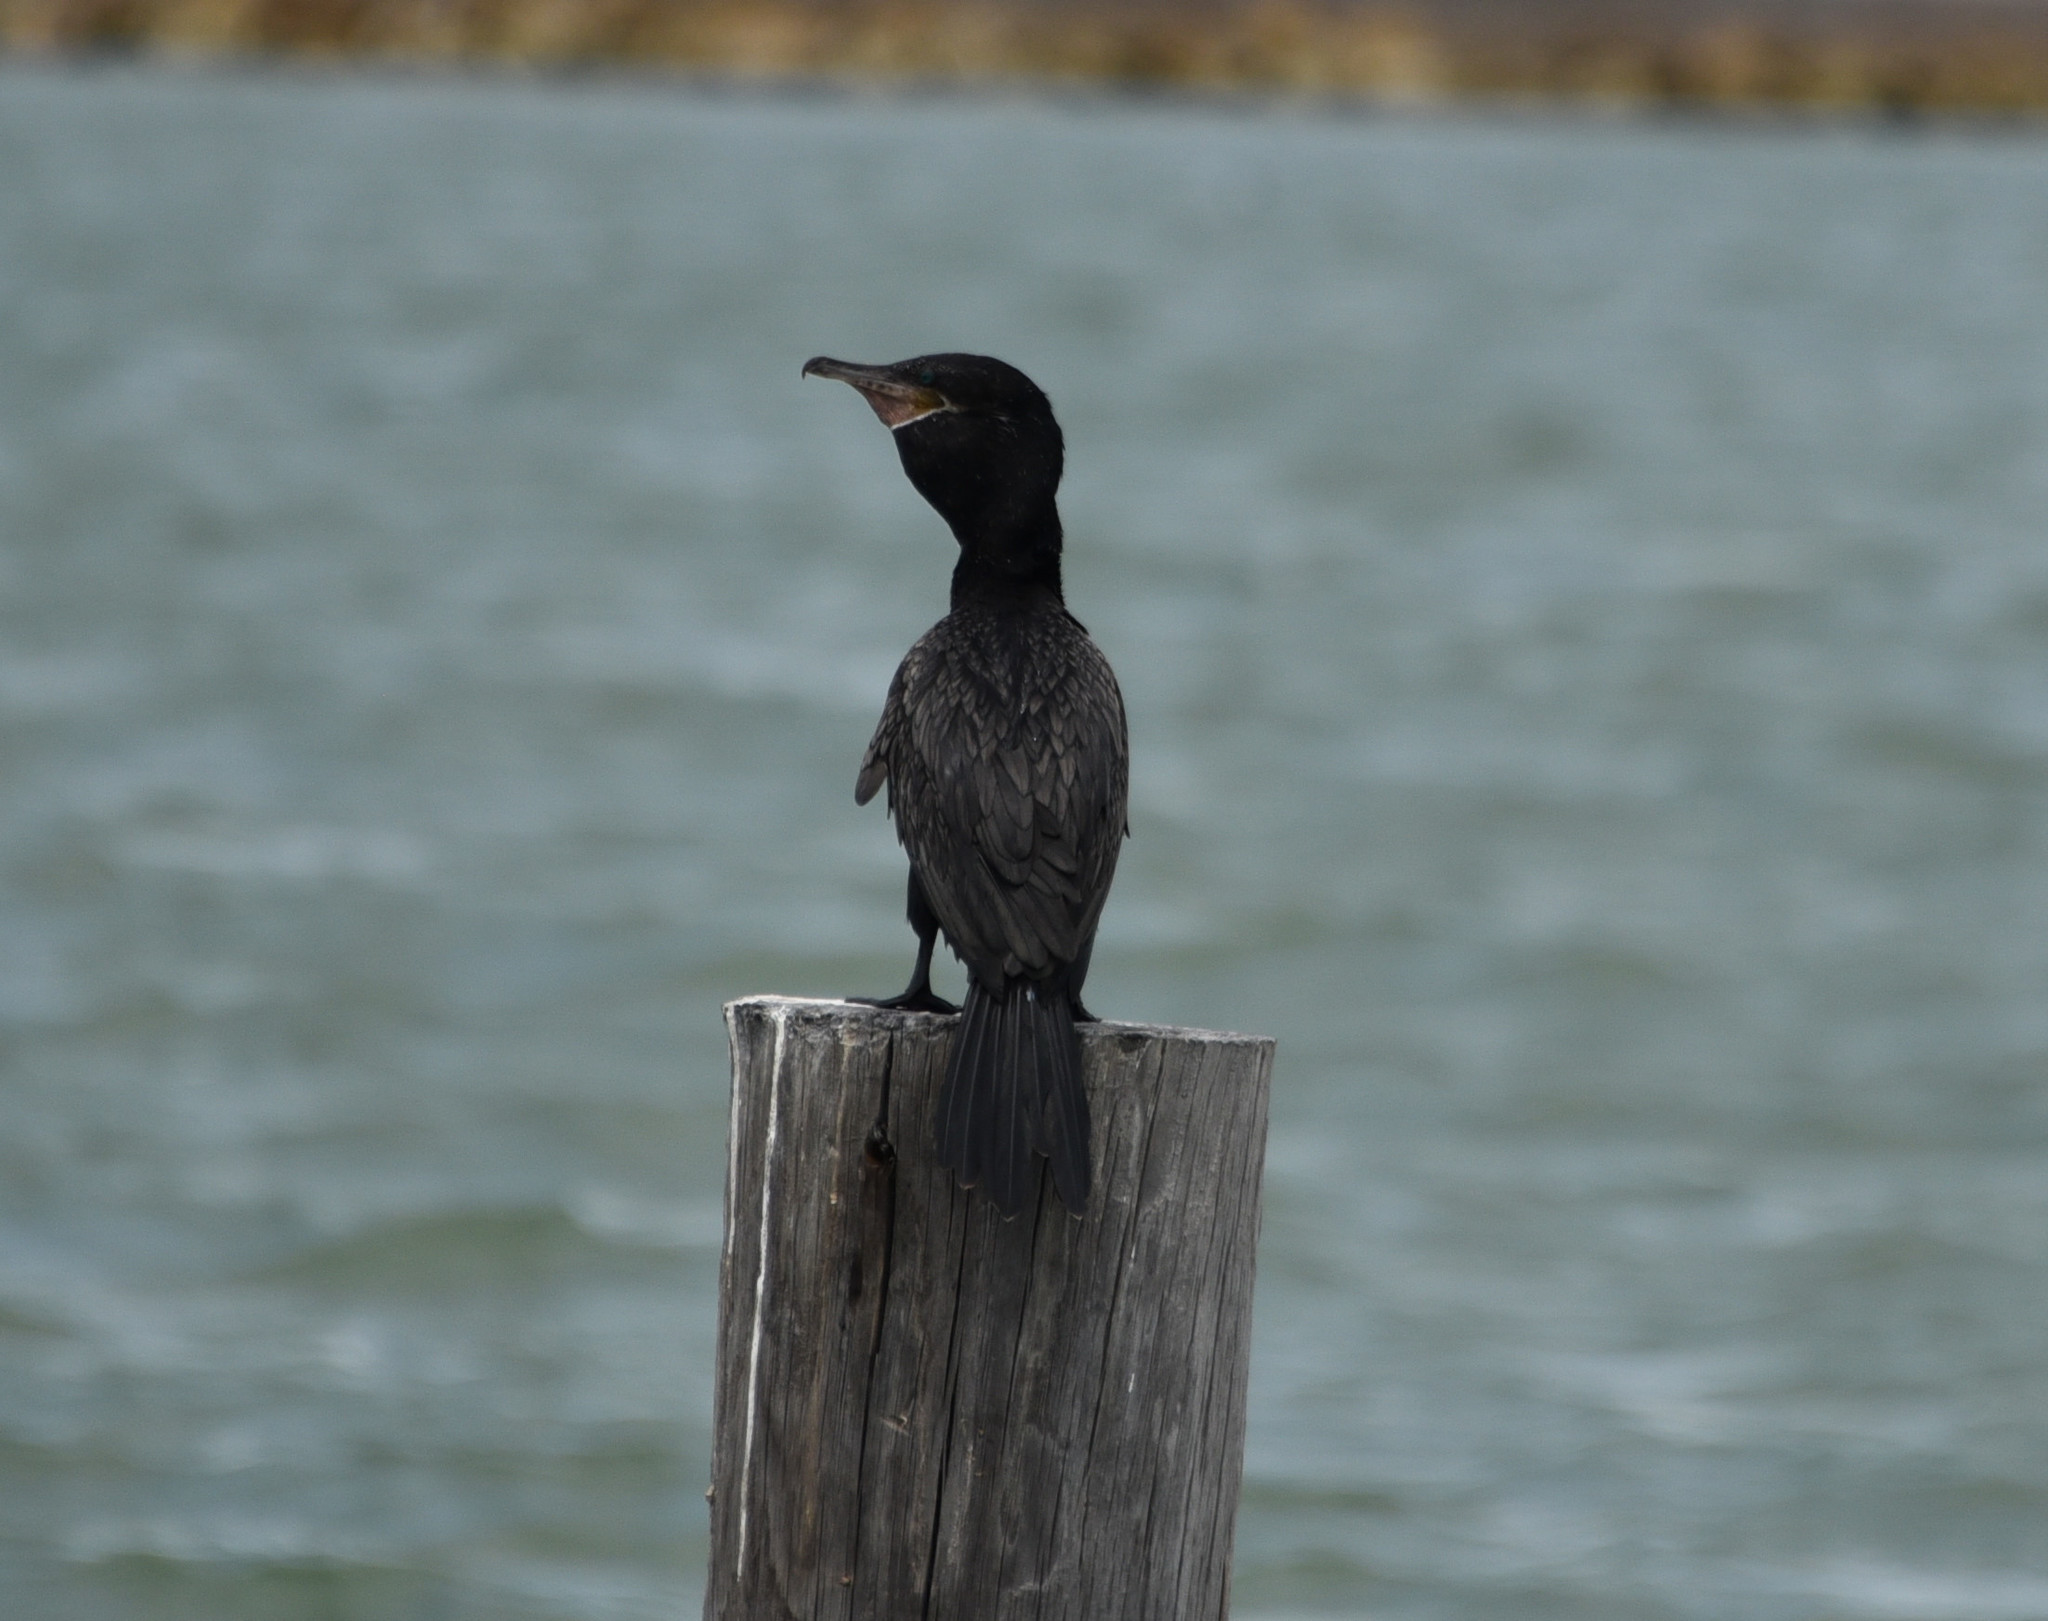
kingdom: Animalia
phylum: Chordata
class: Aves
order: Suliformes
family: Phalacrocoracidae
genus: Phalacrocorax
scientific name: Phalacrocorax brasilianus
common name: Neotropic cormorant
